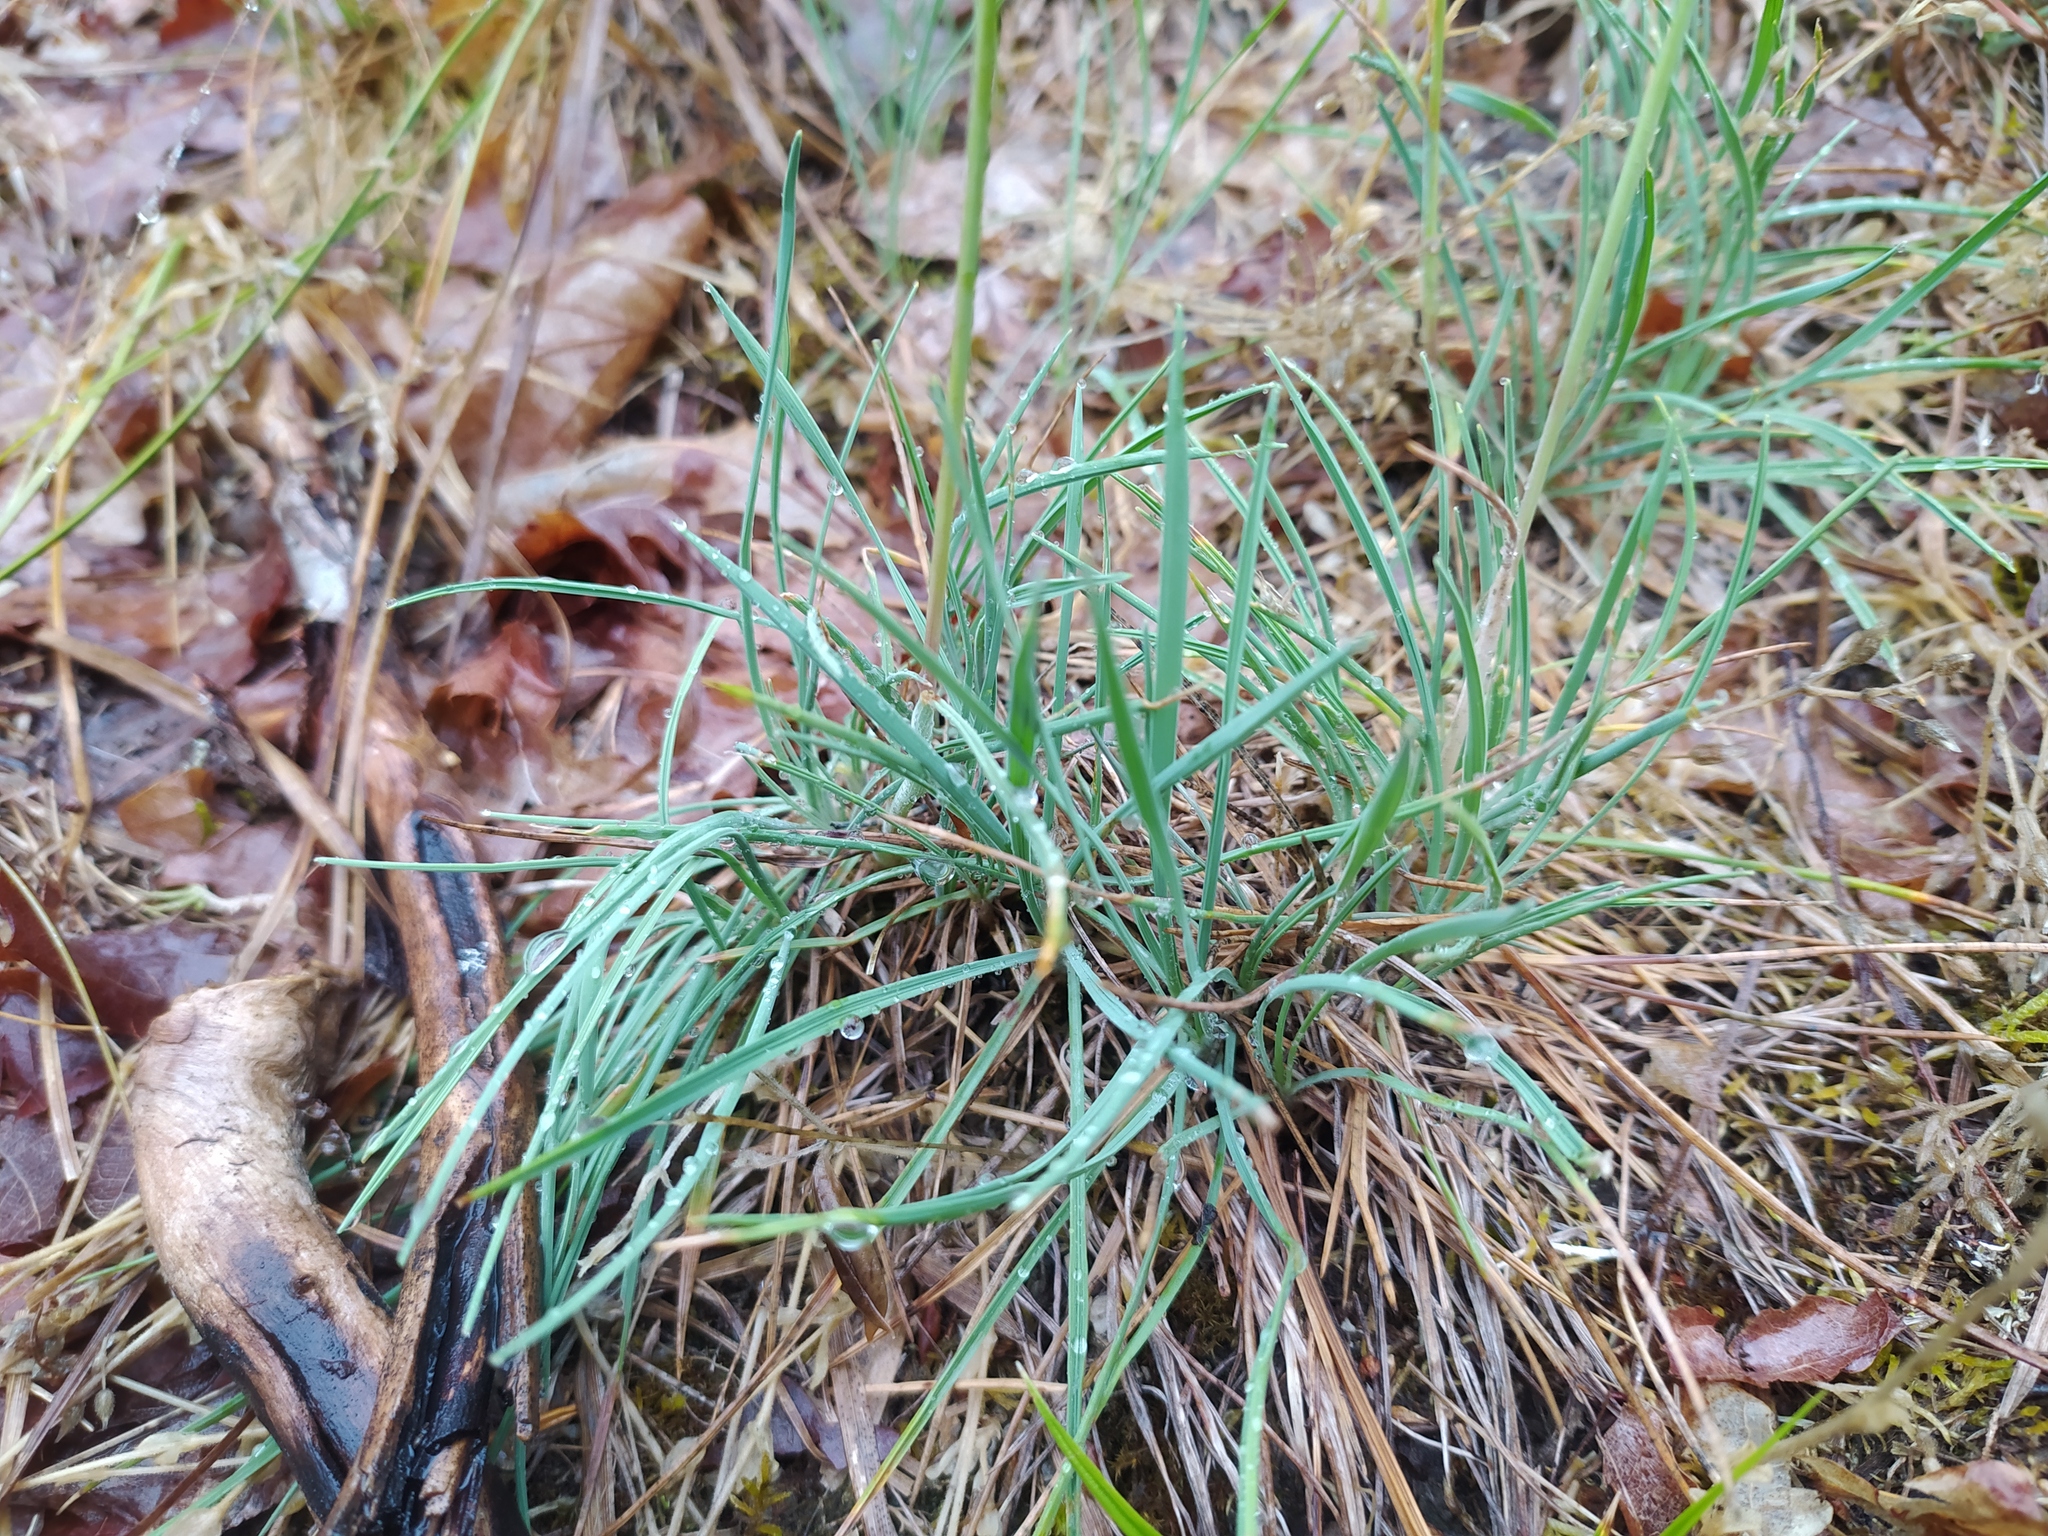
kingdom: Plantae
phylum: Tracheophyta
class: Liliopsida
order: Poales
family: Poaceae
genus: Koeleria
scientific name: Koeleria glauca
